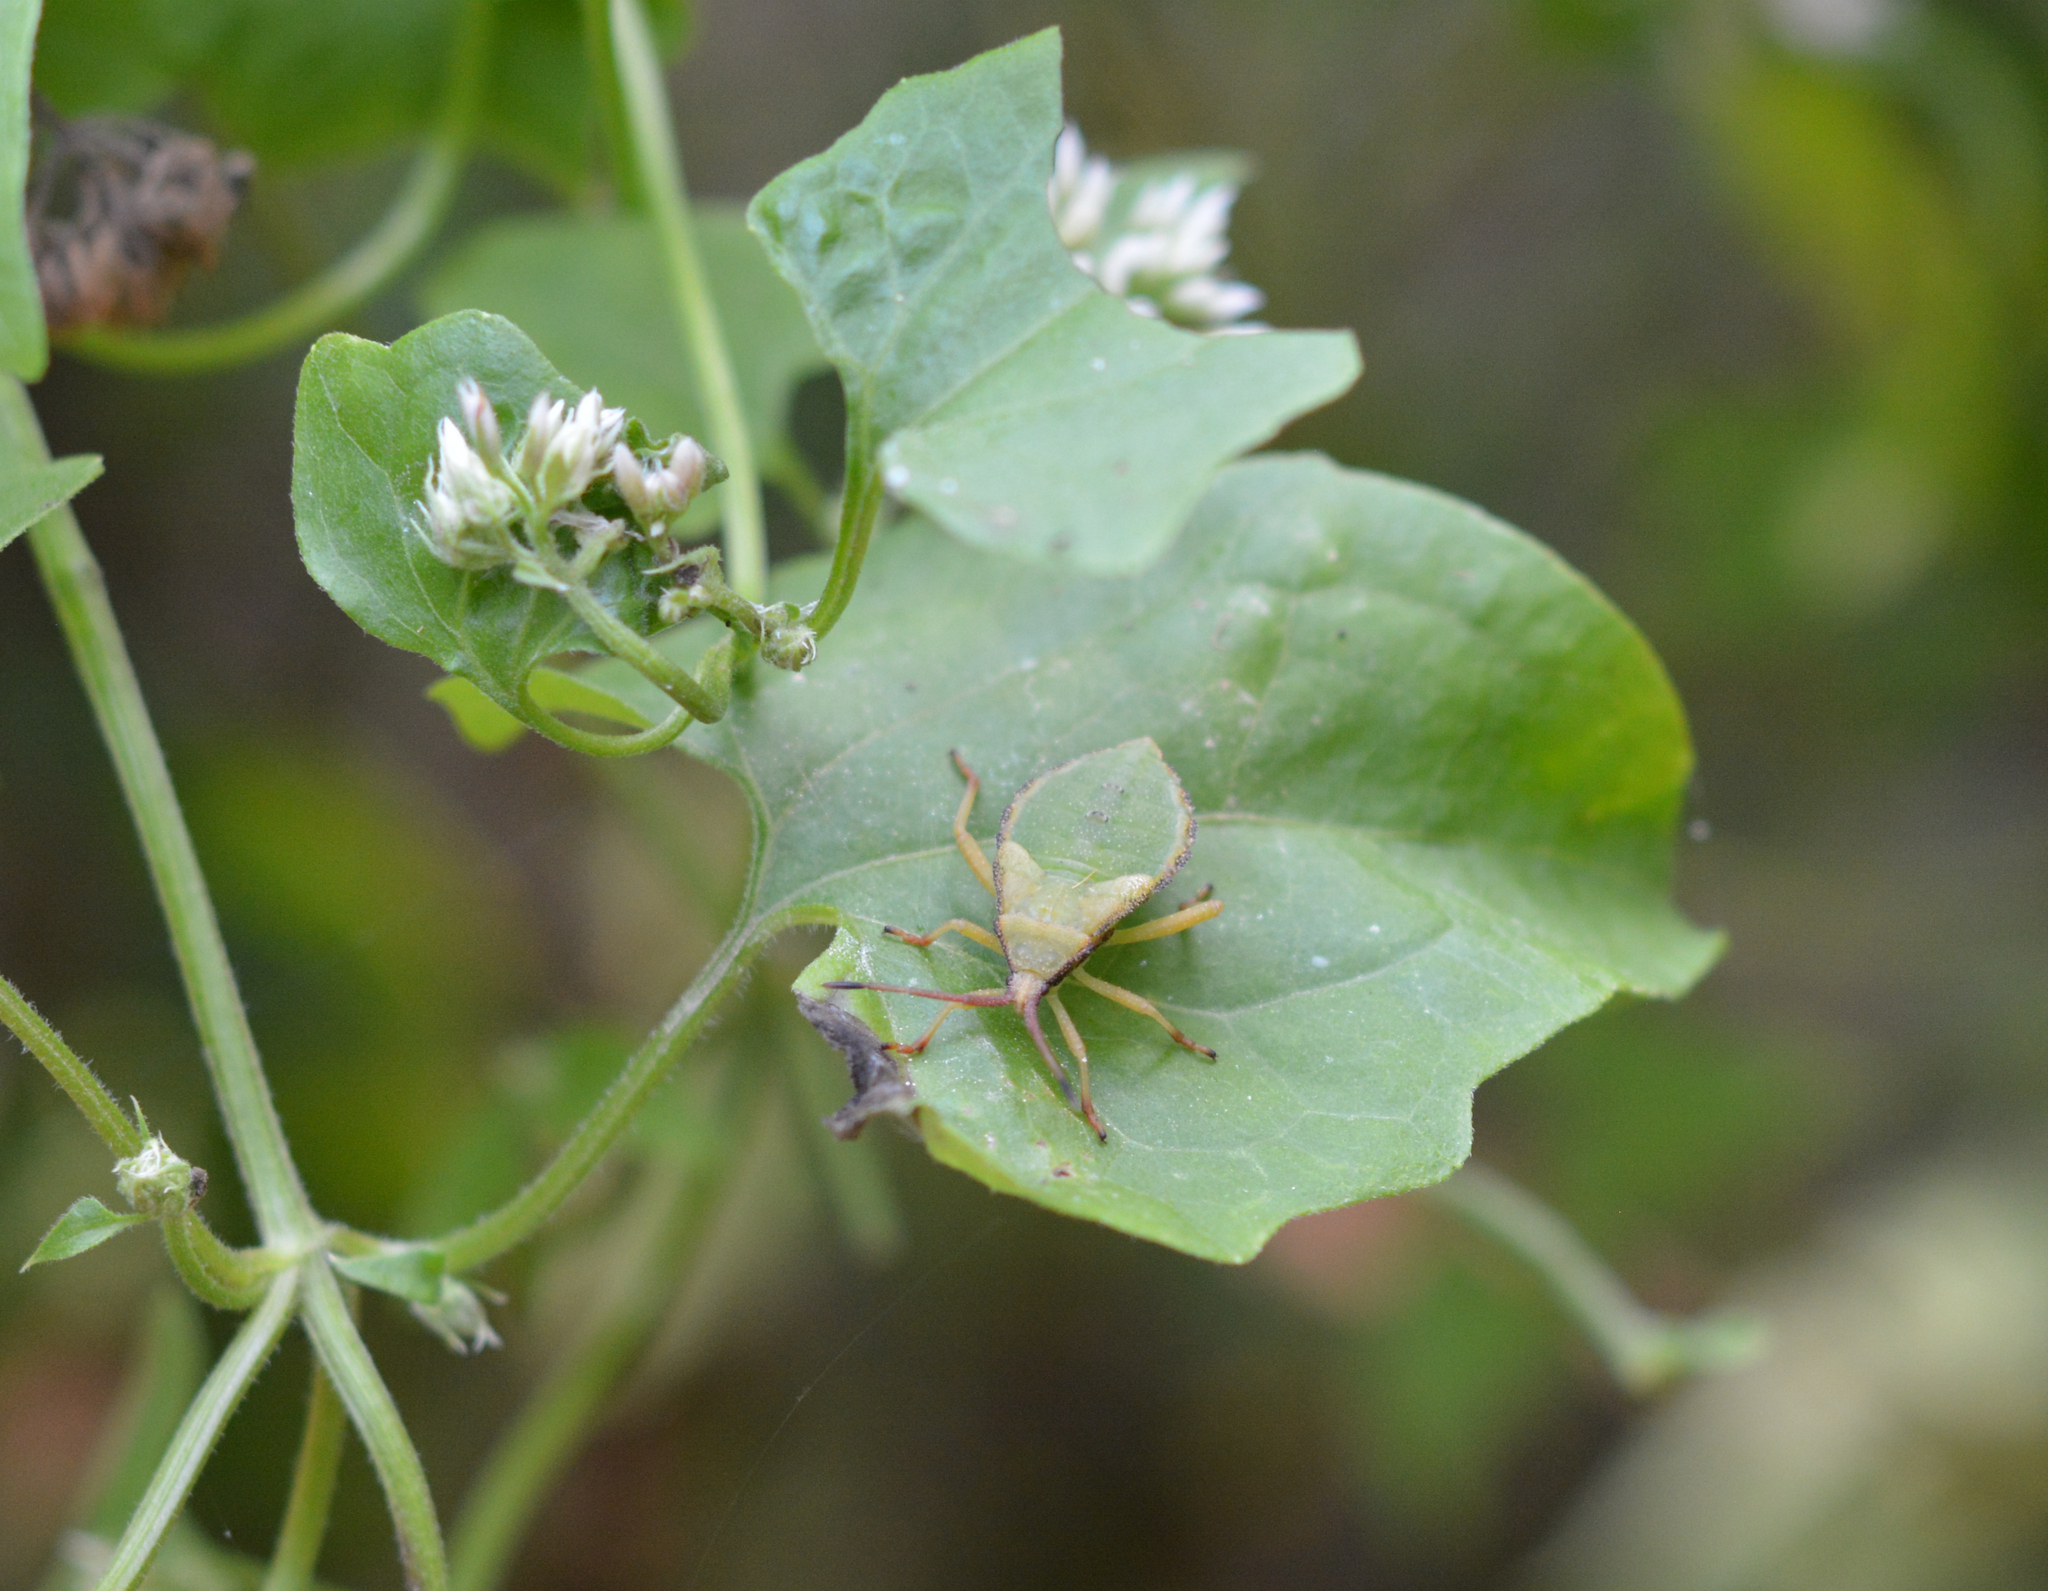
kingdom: Animalia
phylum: Arthropoda
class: Insecta
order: Hemiptera
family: Coreidae
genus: Piezogaster
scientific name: Piezogaster calcarator
